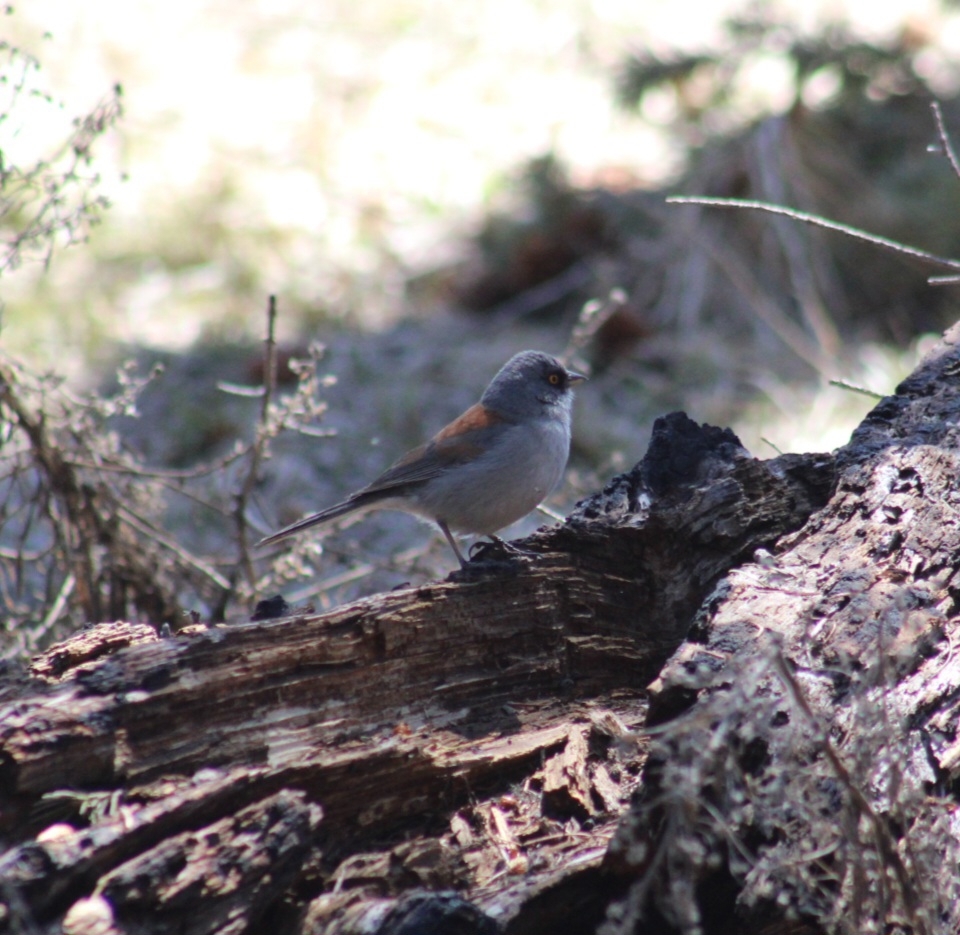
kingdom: Animalia
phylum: Chordata
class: Aves
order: Passeriformes
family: Passerellidae
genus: Junco
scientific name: Junco phaeonotus
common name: Yellow-eyed junco
